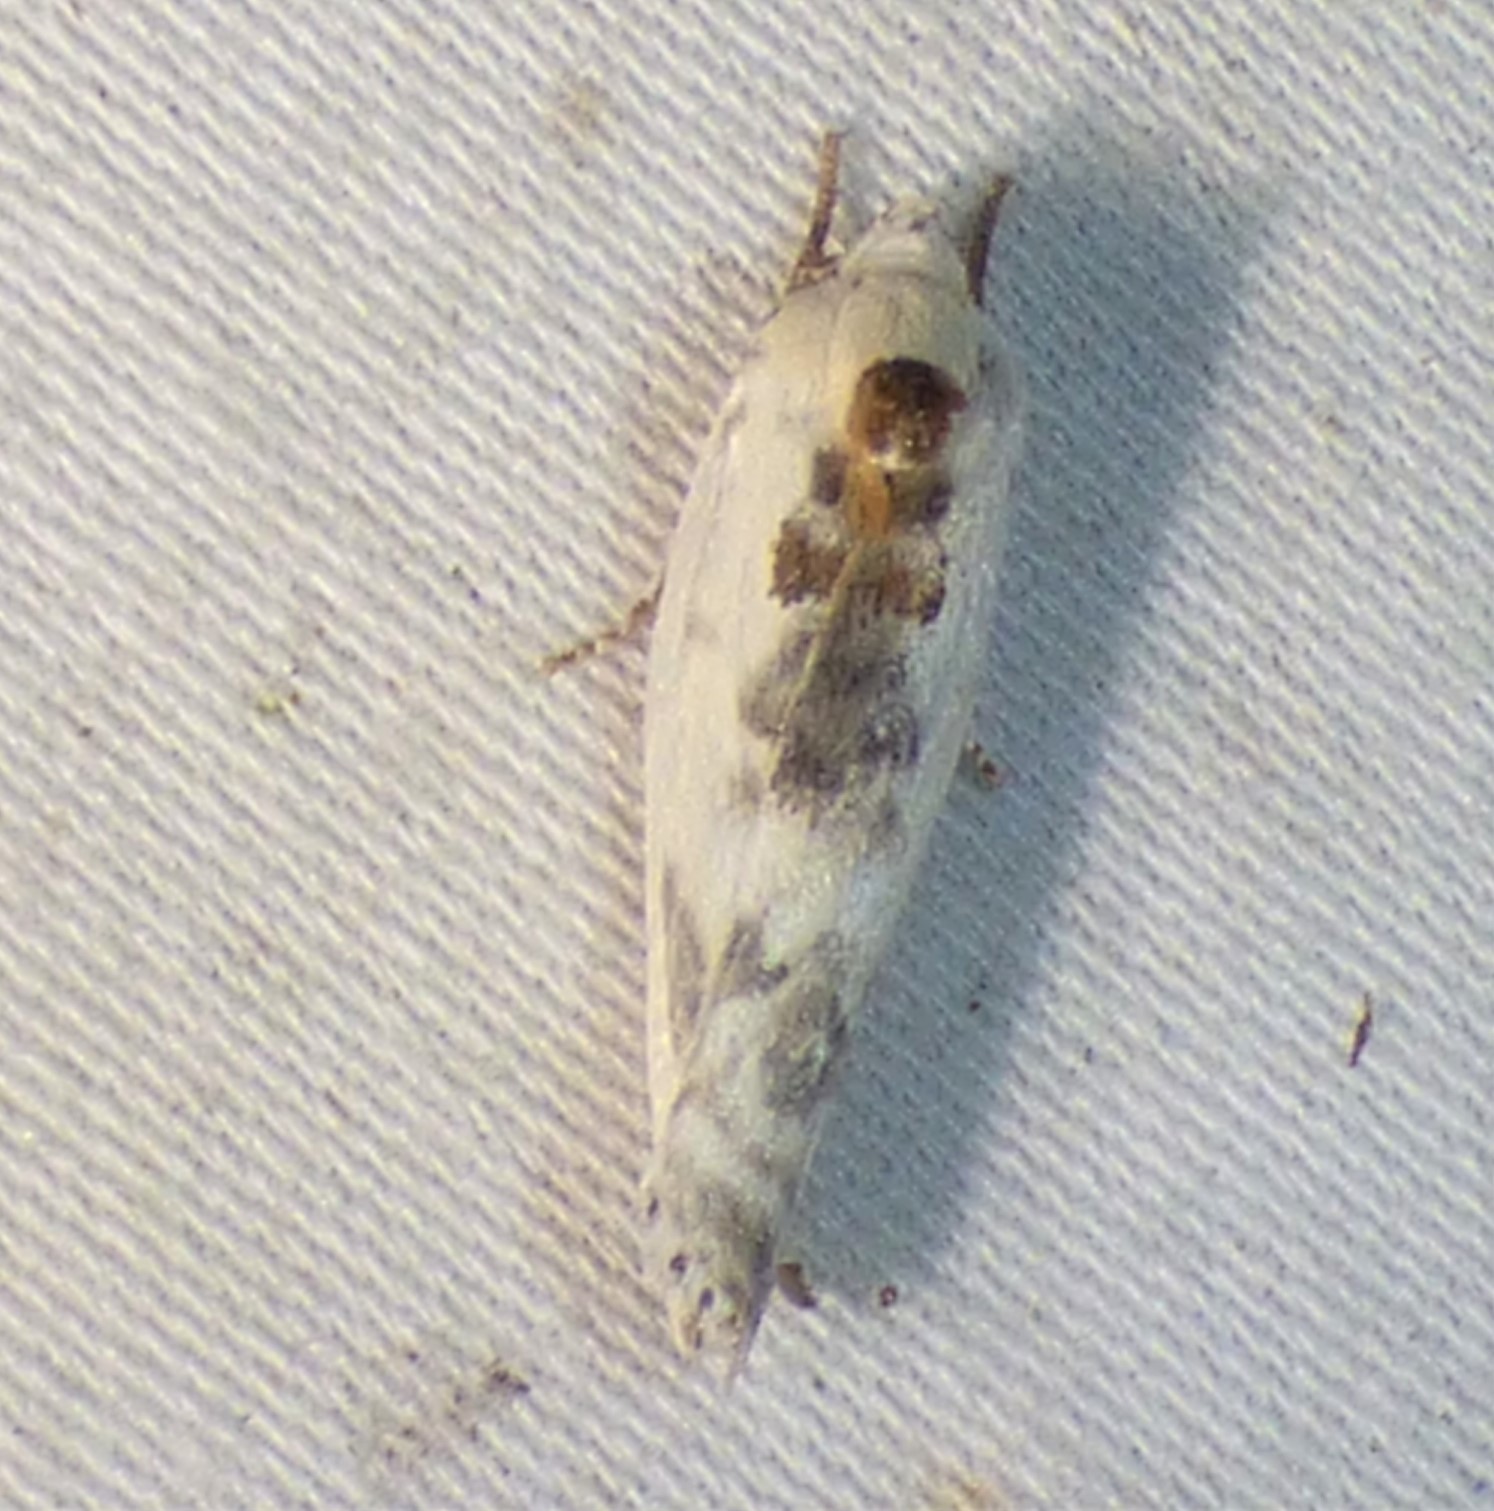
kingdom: Animalia
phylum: Arthropoda
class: Insecta
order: Lepidoptera
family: Depressariidae
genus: Antaeotricha
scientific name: Antaeotricha leucillana
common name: Pale gray bird-dropping moth
